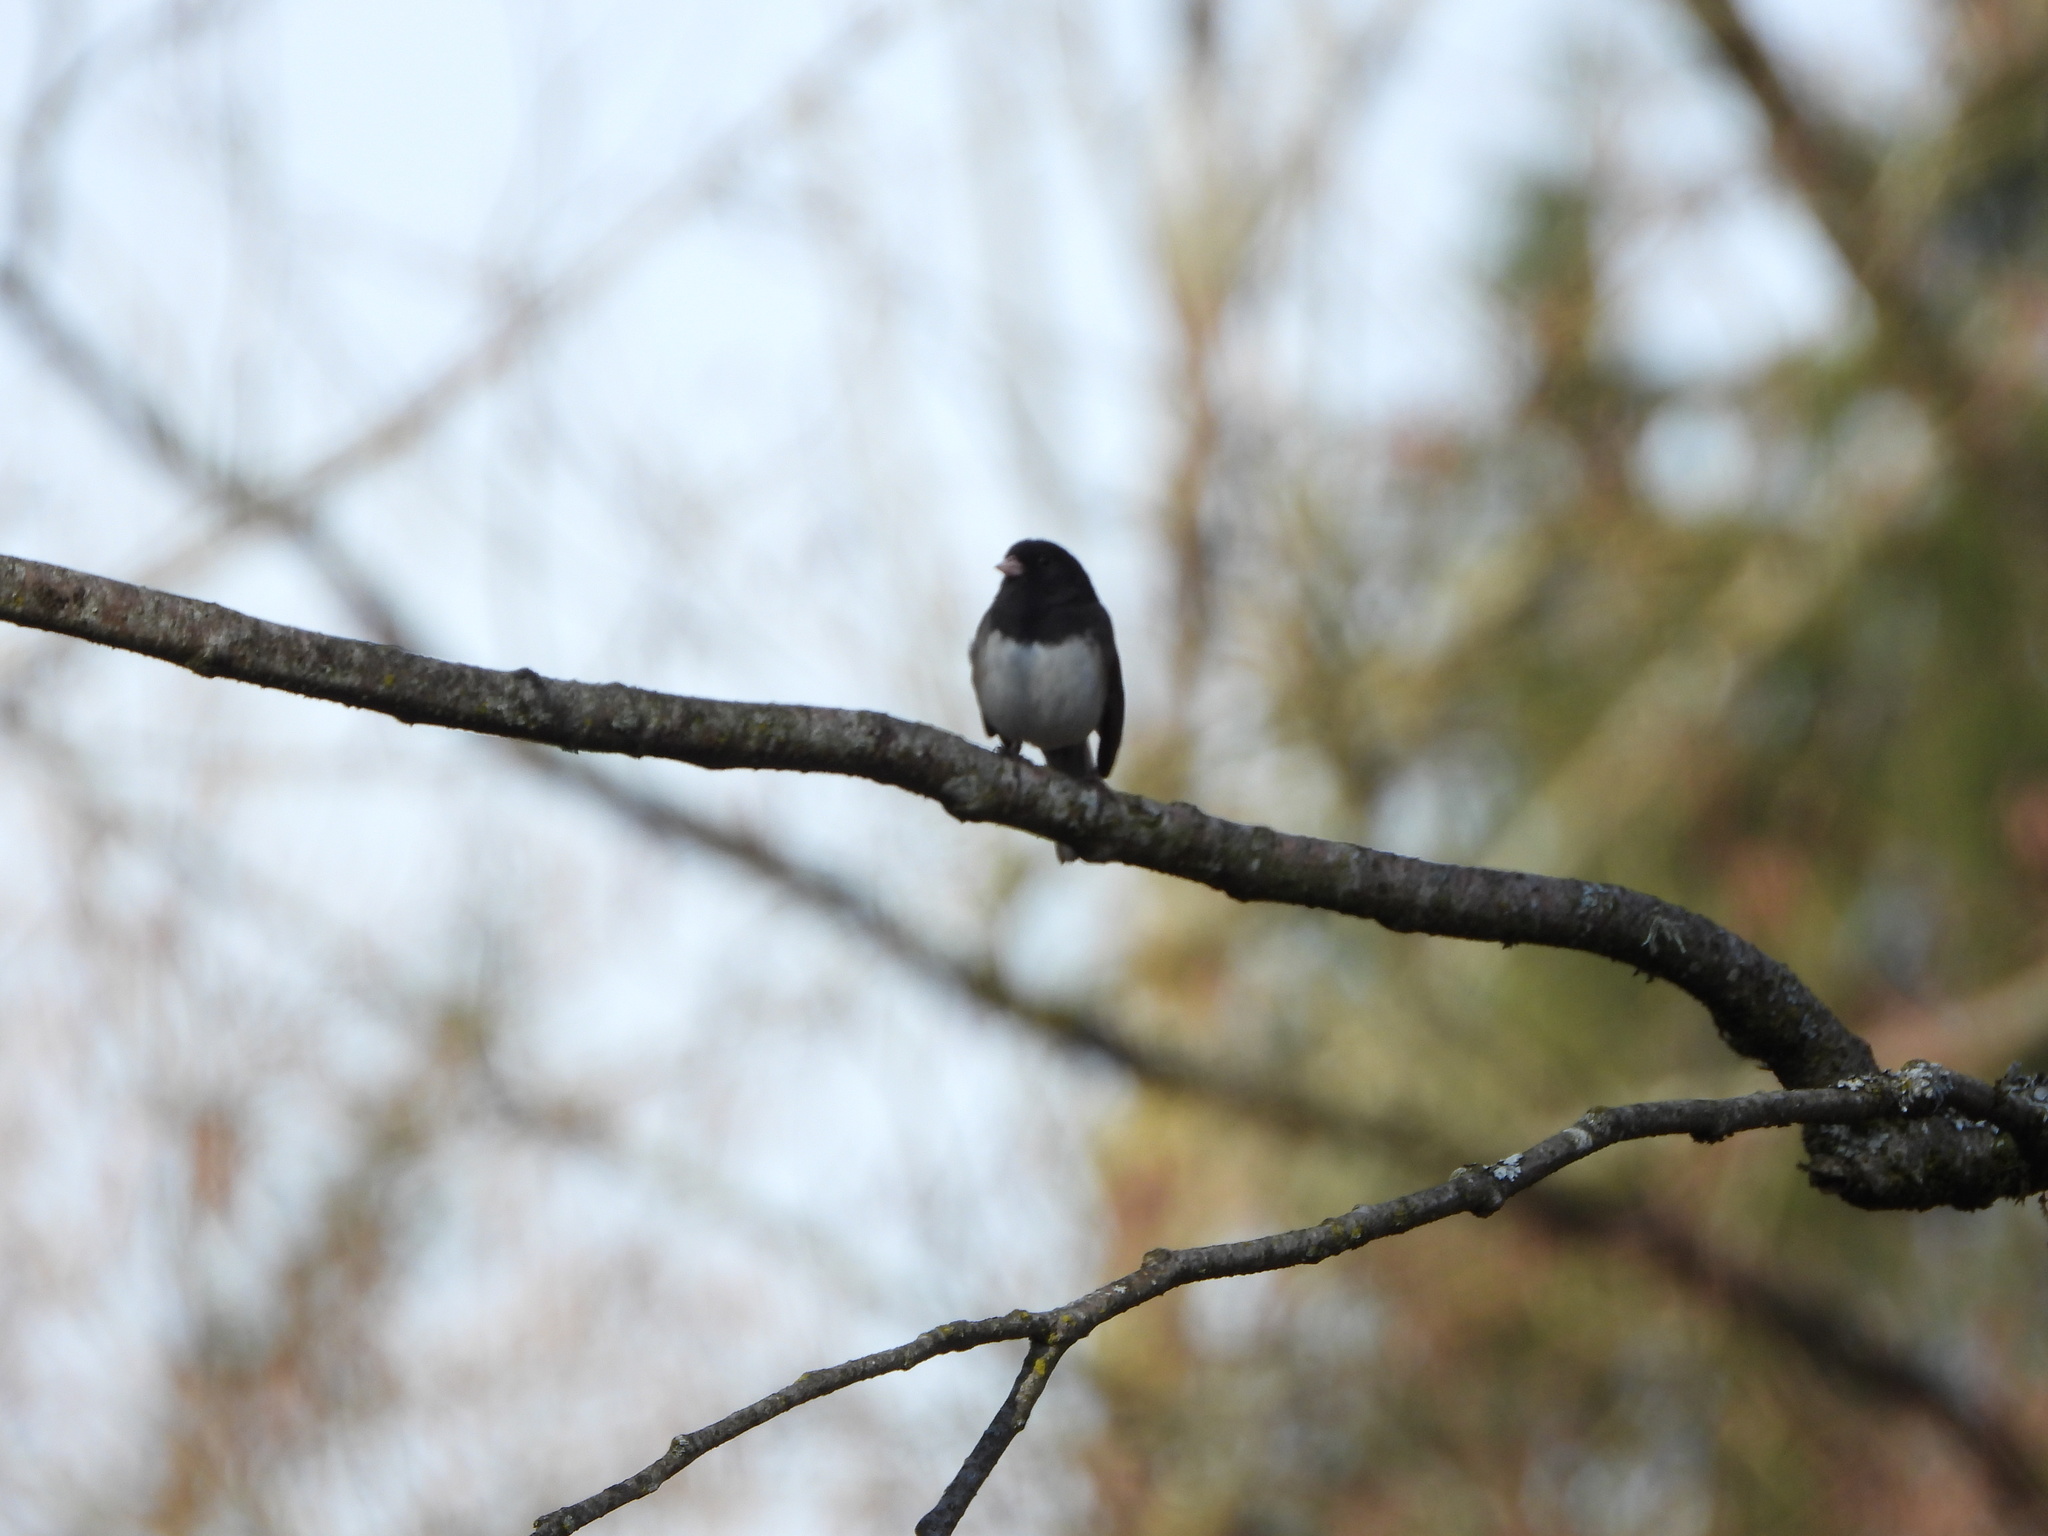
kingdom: Animalia
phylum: Chordata
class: Aves
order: Passeriformes
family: Passerellidae
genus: Junco
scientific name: Junco hyemalis
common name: Dark-eyed junco
